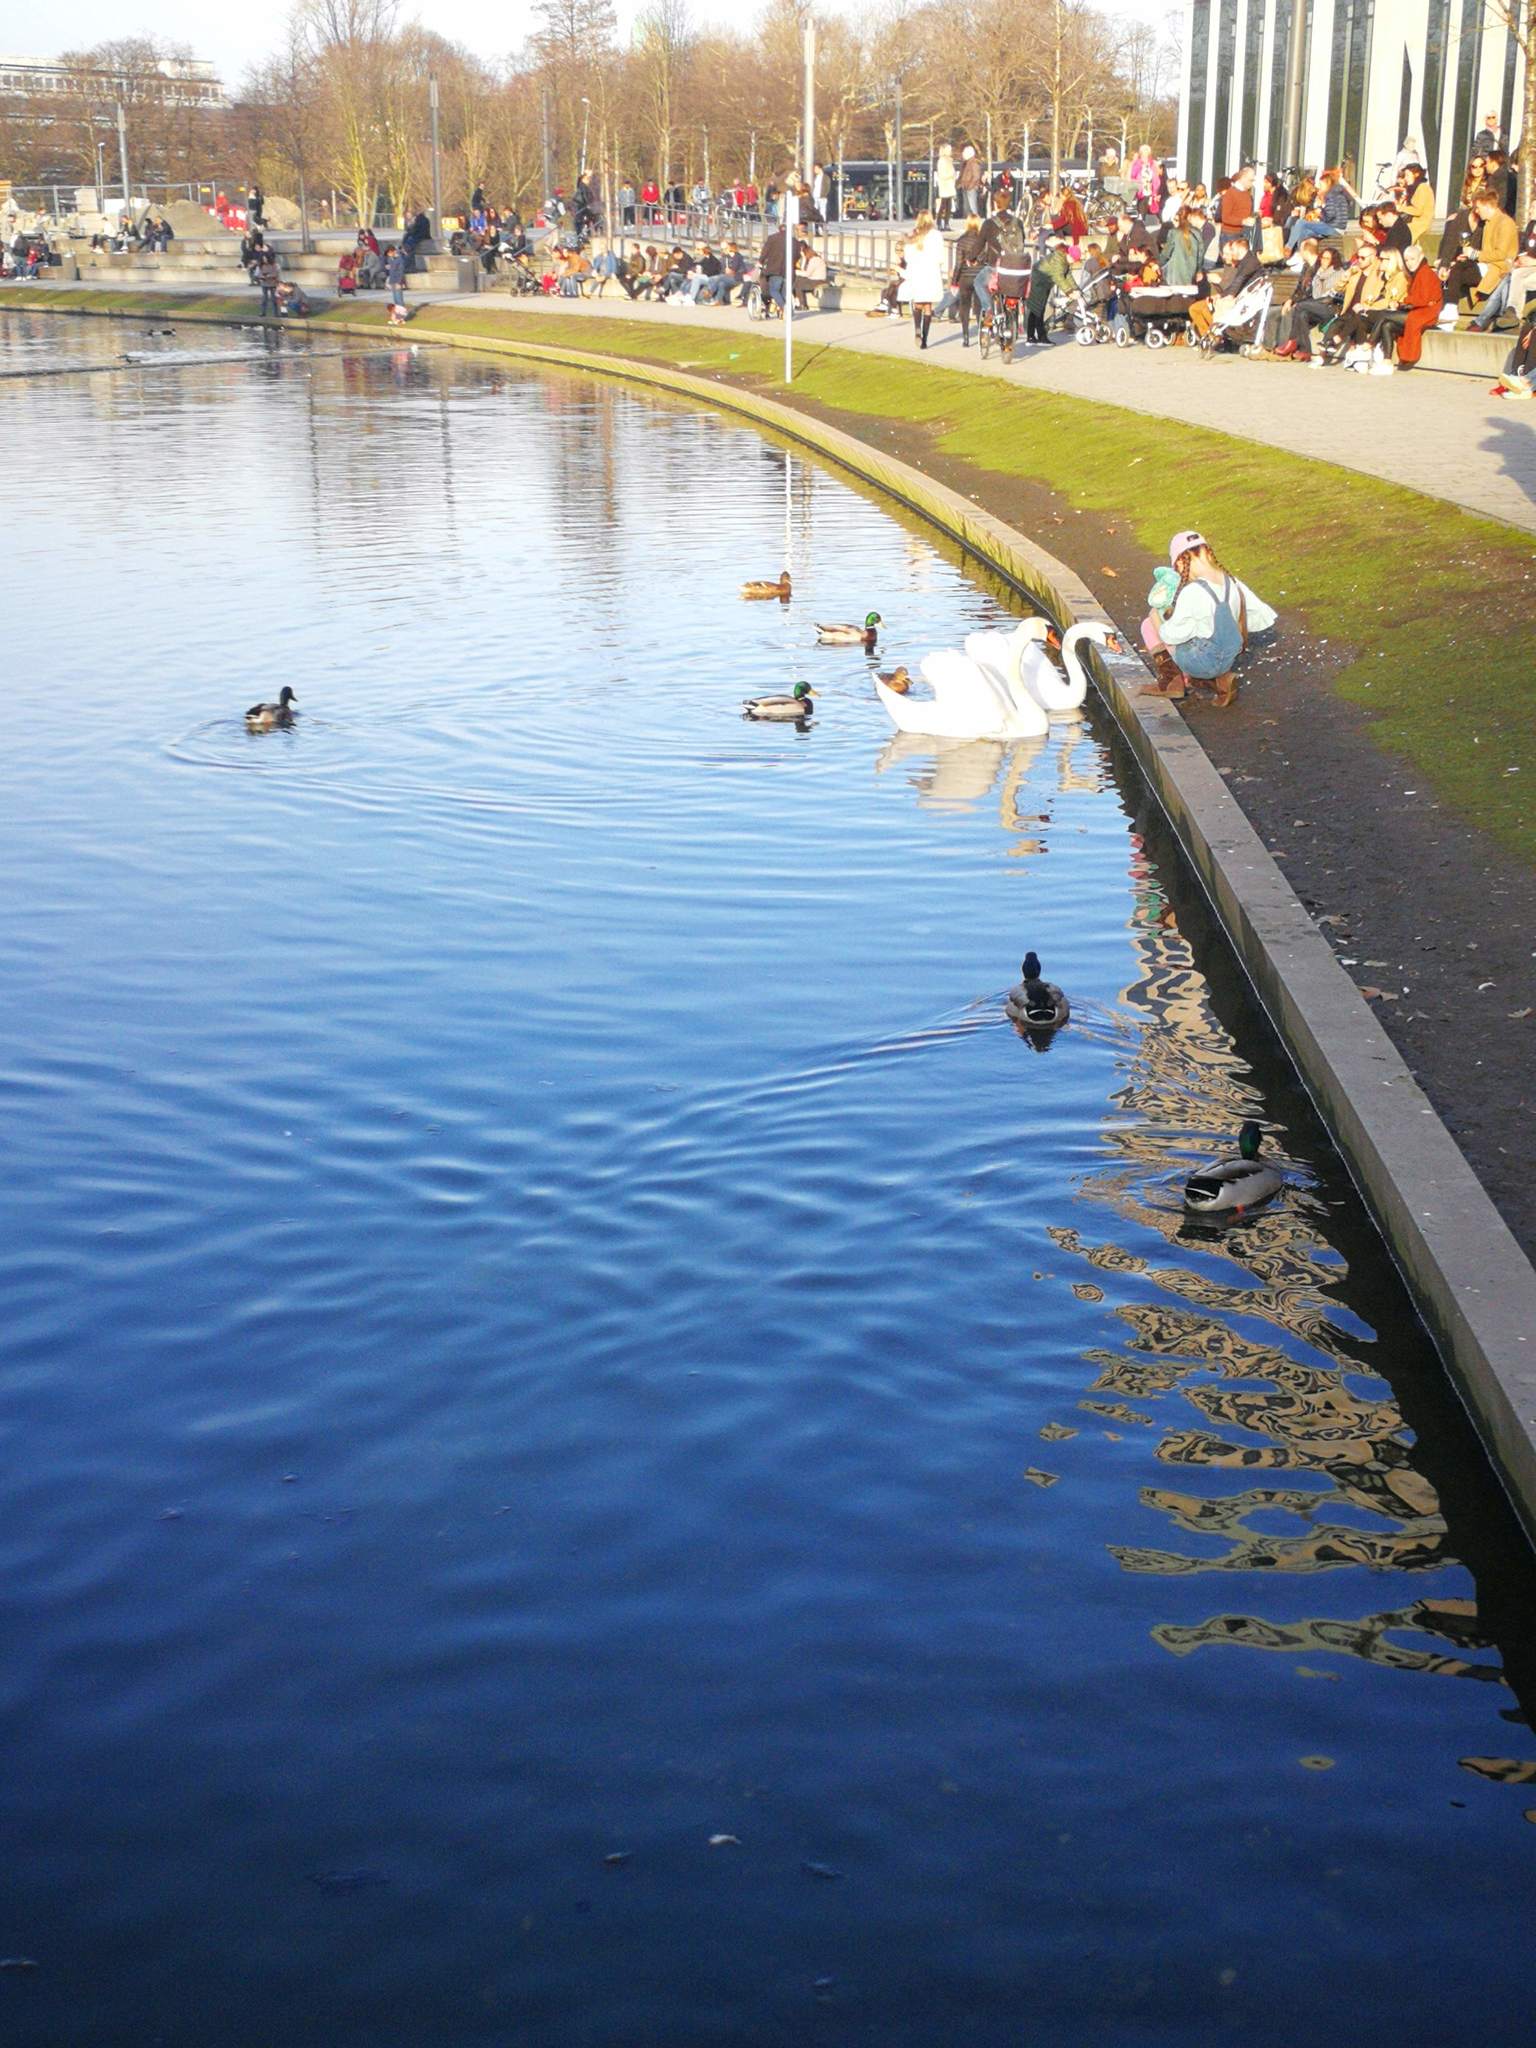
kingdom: Animalia
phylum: Chordata
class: Aves
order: Anseriformes
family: Anatidae
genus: Anas
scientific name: Anas platyrhynchos
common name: Mallard
